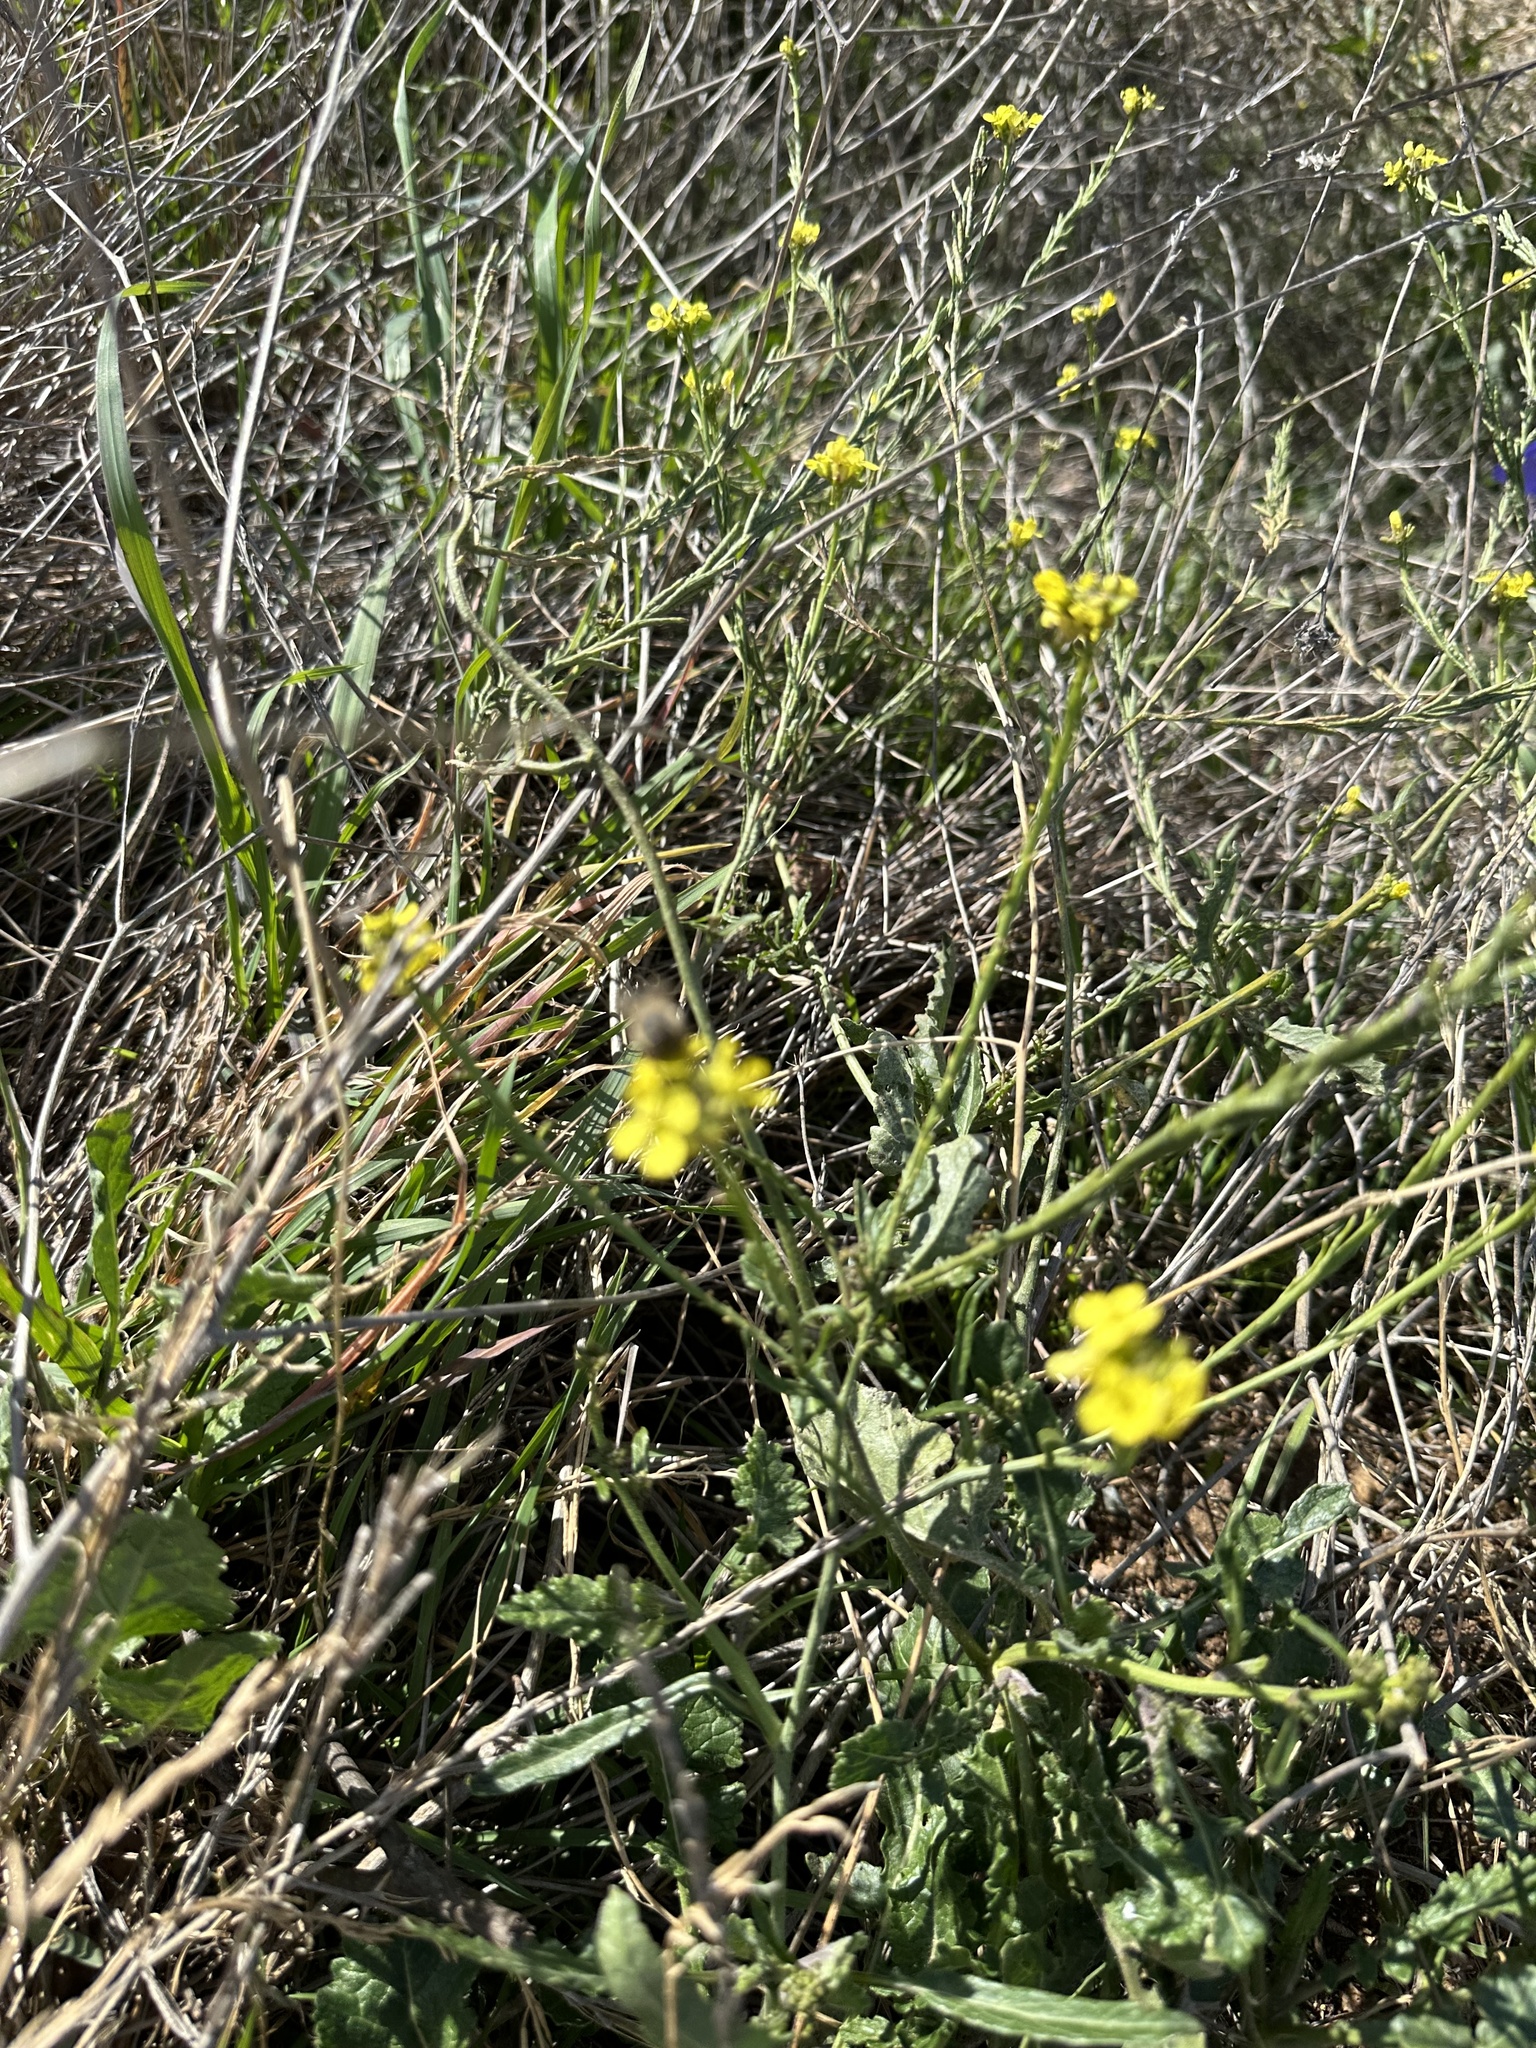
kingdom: Plantae
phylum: Tracheophyta
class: Magnoliopsida
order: Brassicales
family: Brassicaceae
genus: Hirschfeldia
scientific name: Hirschfeldia incana
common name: Hoary mustard
